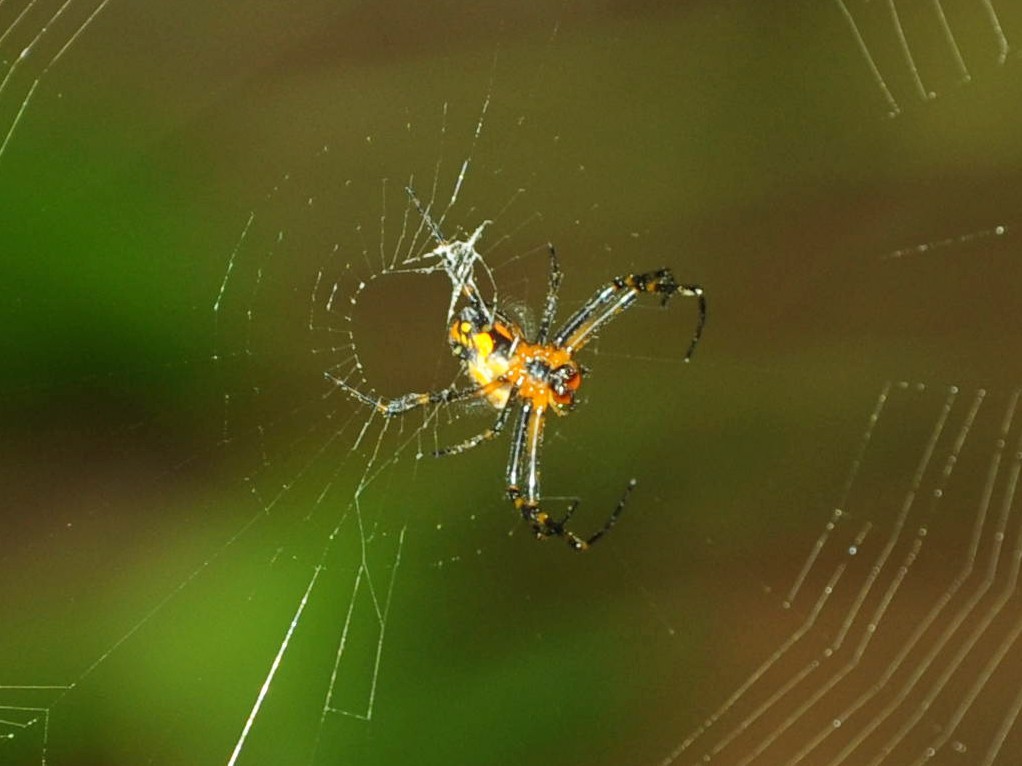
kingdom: Animalia
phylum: Arthropoda
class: Arachnida
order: Araneae
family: Tetragnathidae
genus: Leucauge
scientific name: Leucauge fastigata
